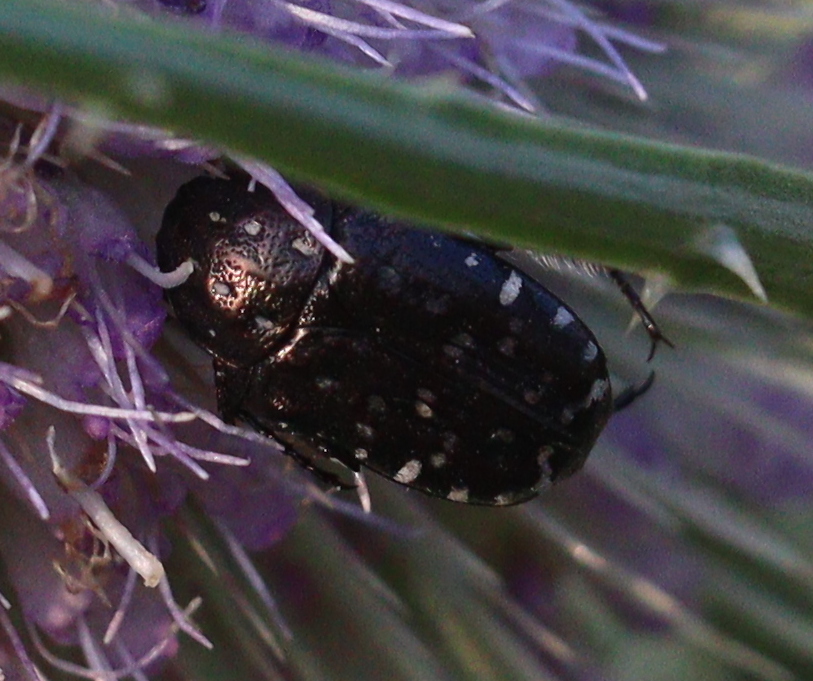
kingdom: Animalia
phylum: Arthropoda
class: Insecta
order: Coleoptera
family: Scarabaeidae
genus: Oxythyrea
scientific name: Oxythyrea funesta
